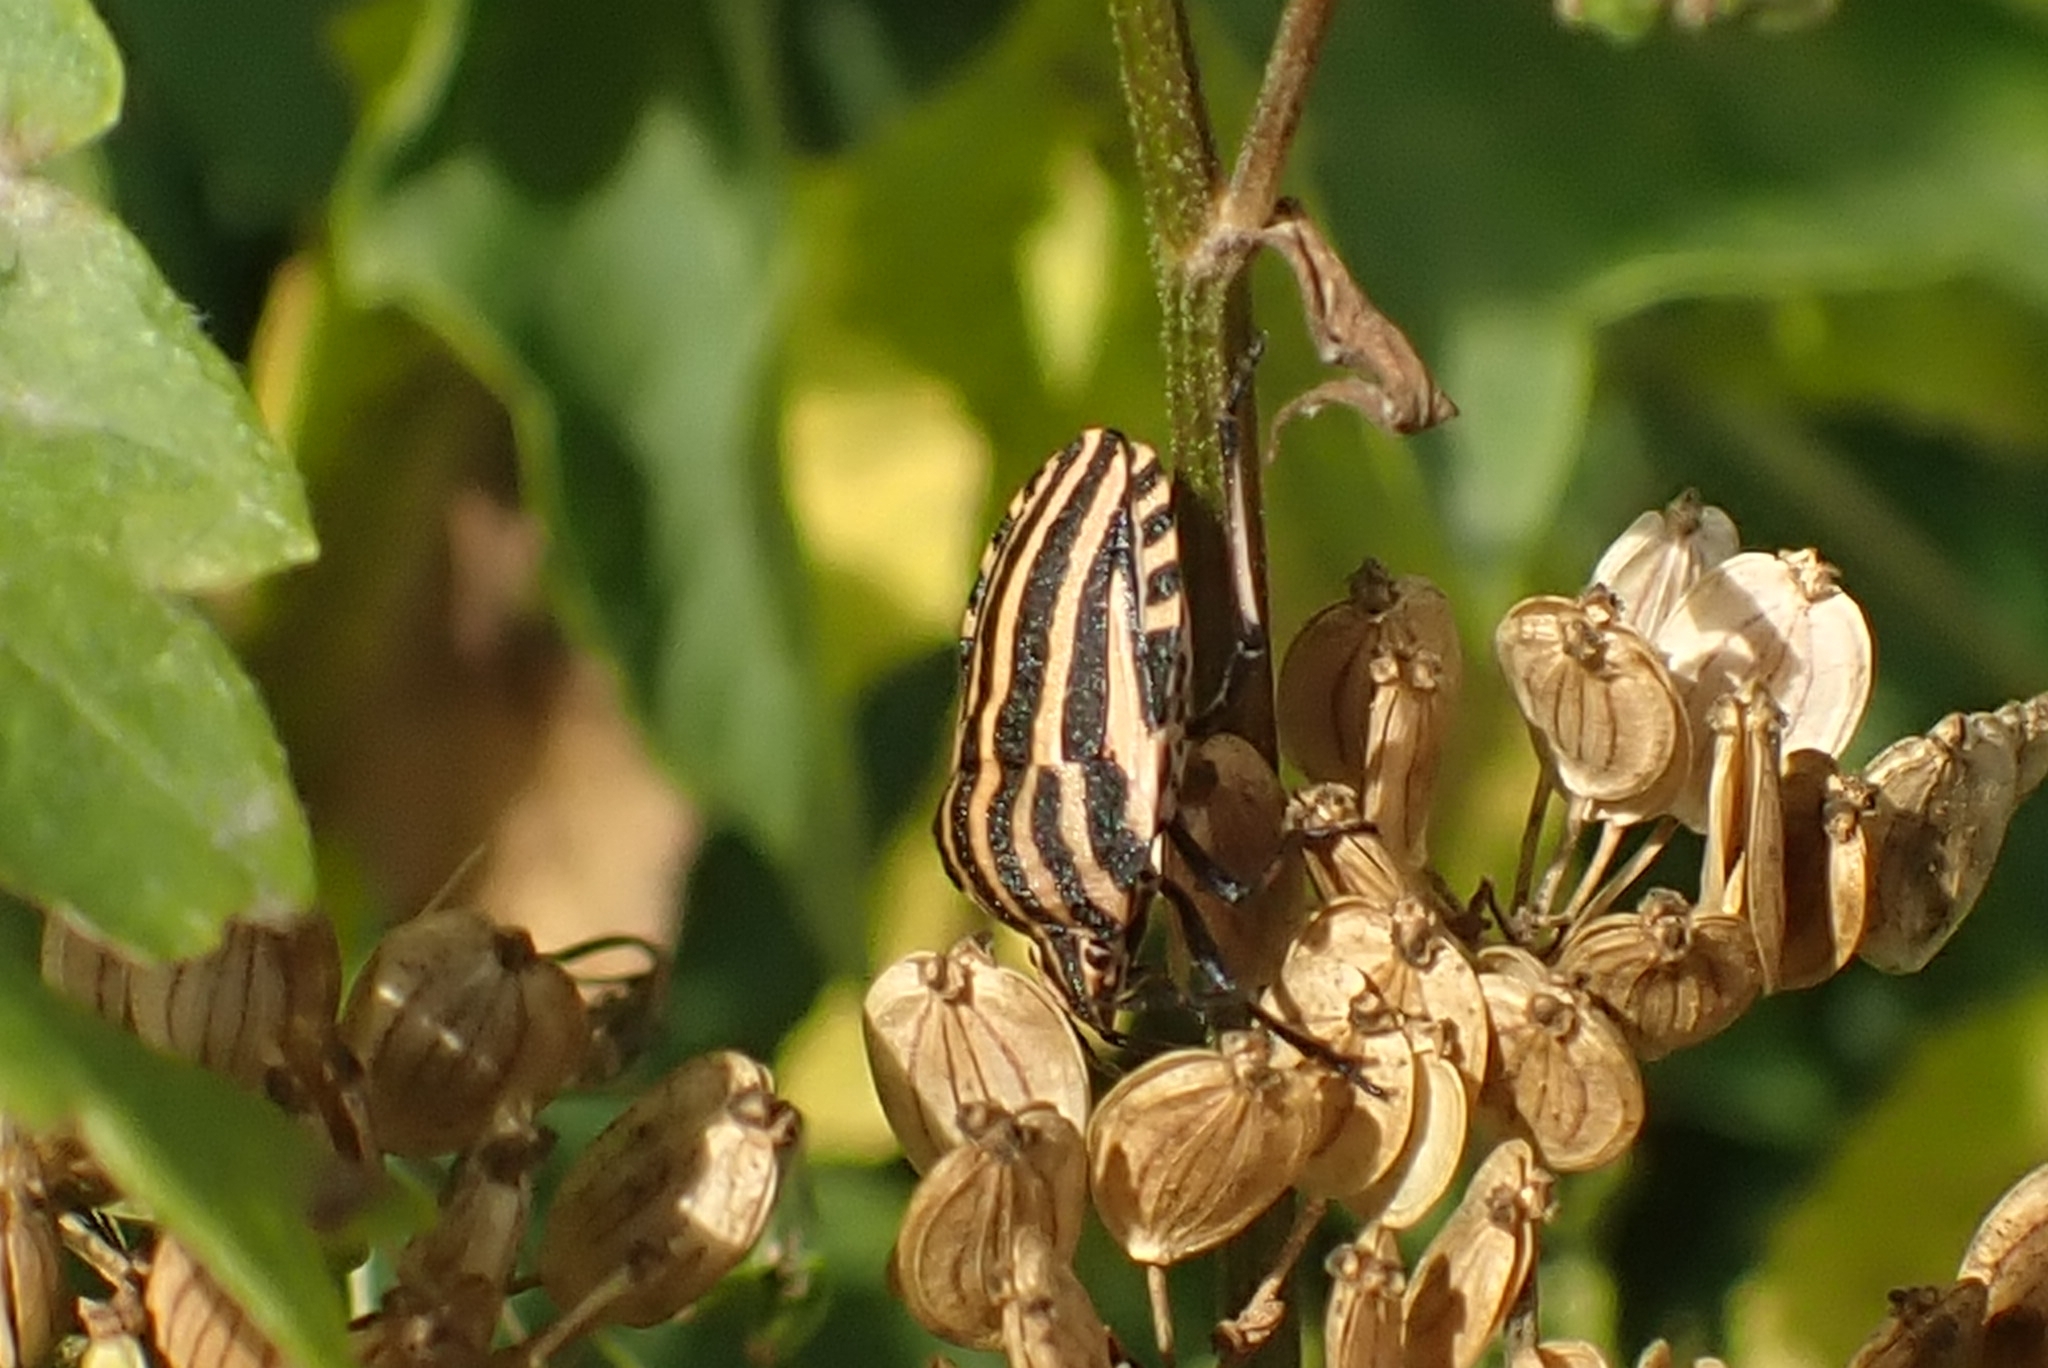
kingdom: Animalia
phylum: Arthropoda
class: Insecta
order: Hemiptera
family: Pentatomidae
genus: Graphosoma
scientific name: Graphosoma italicum
